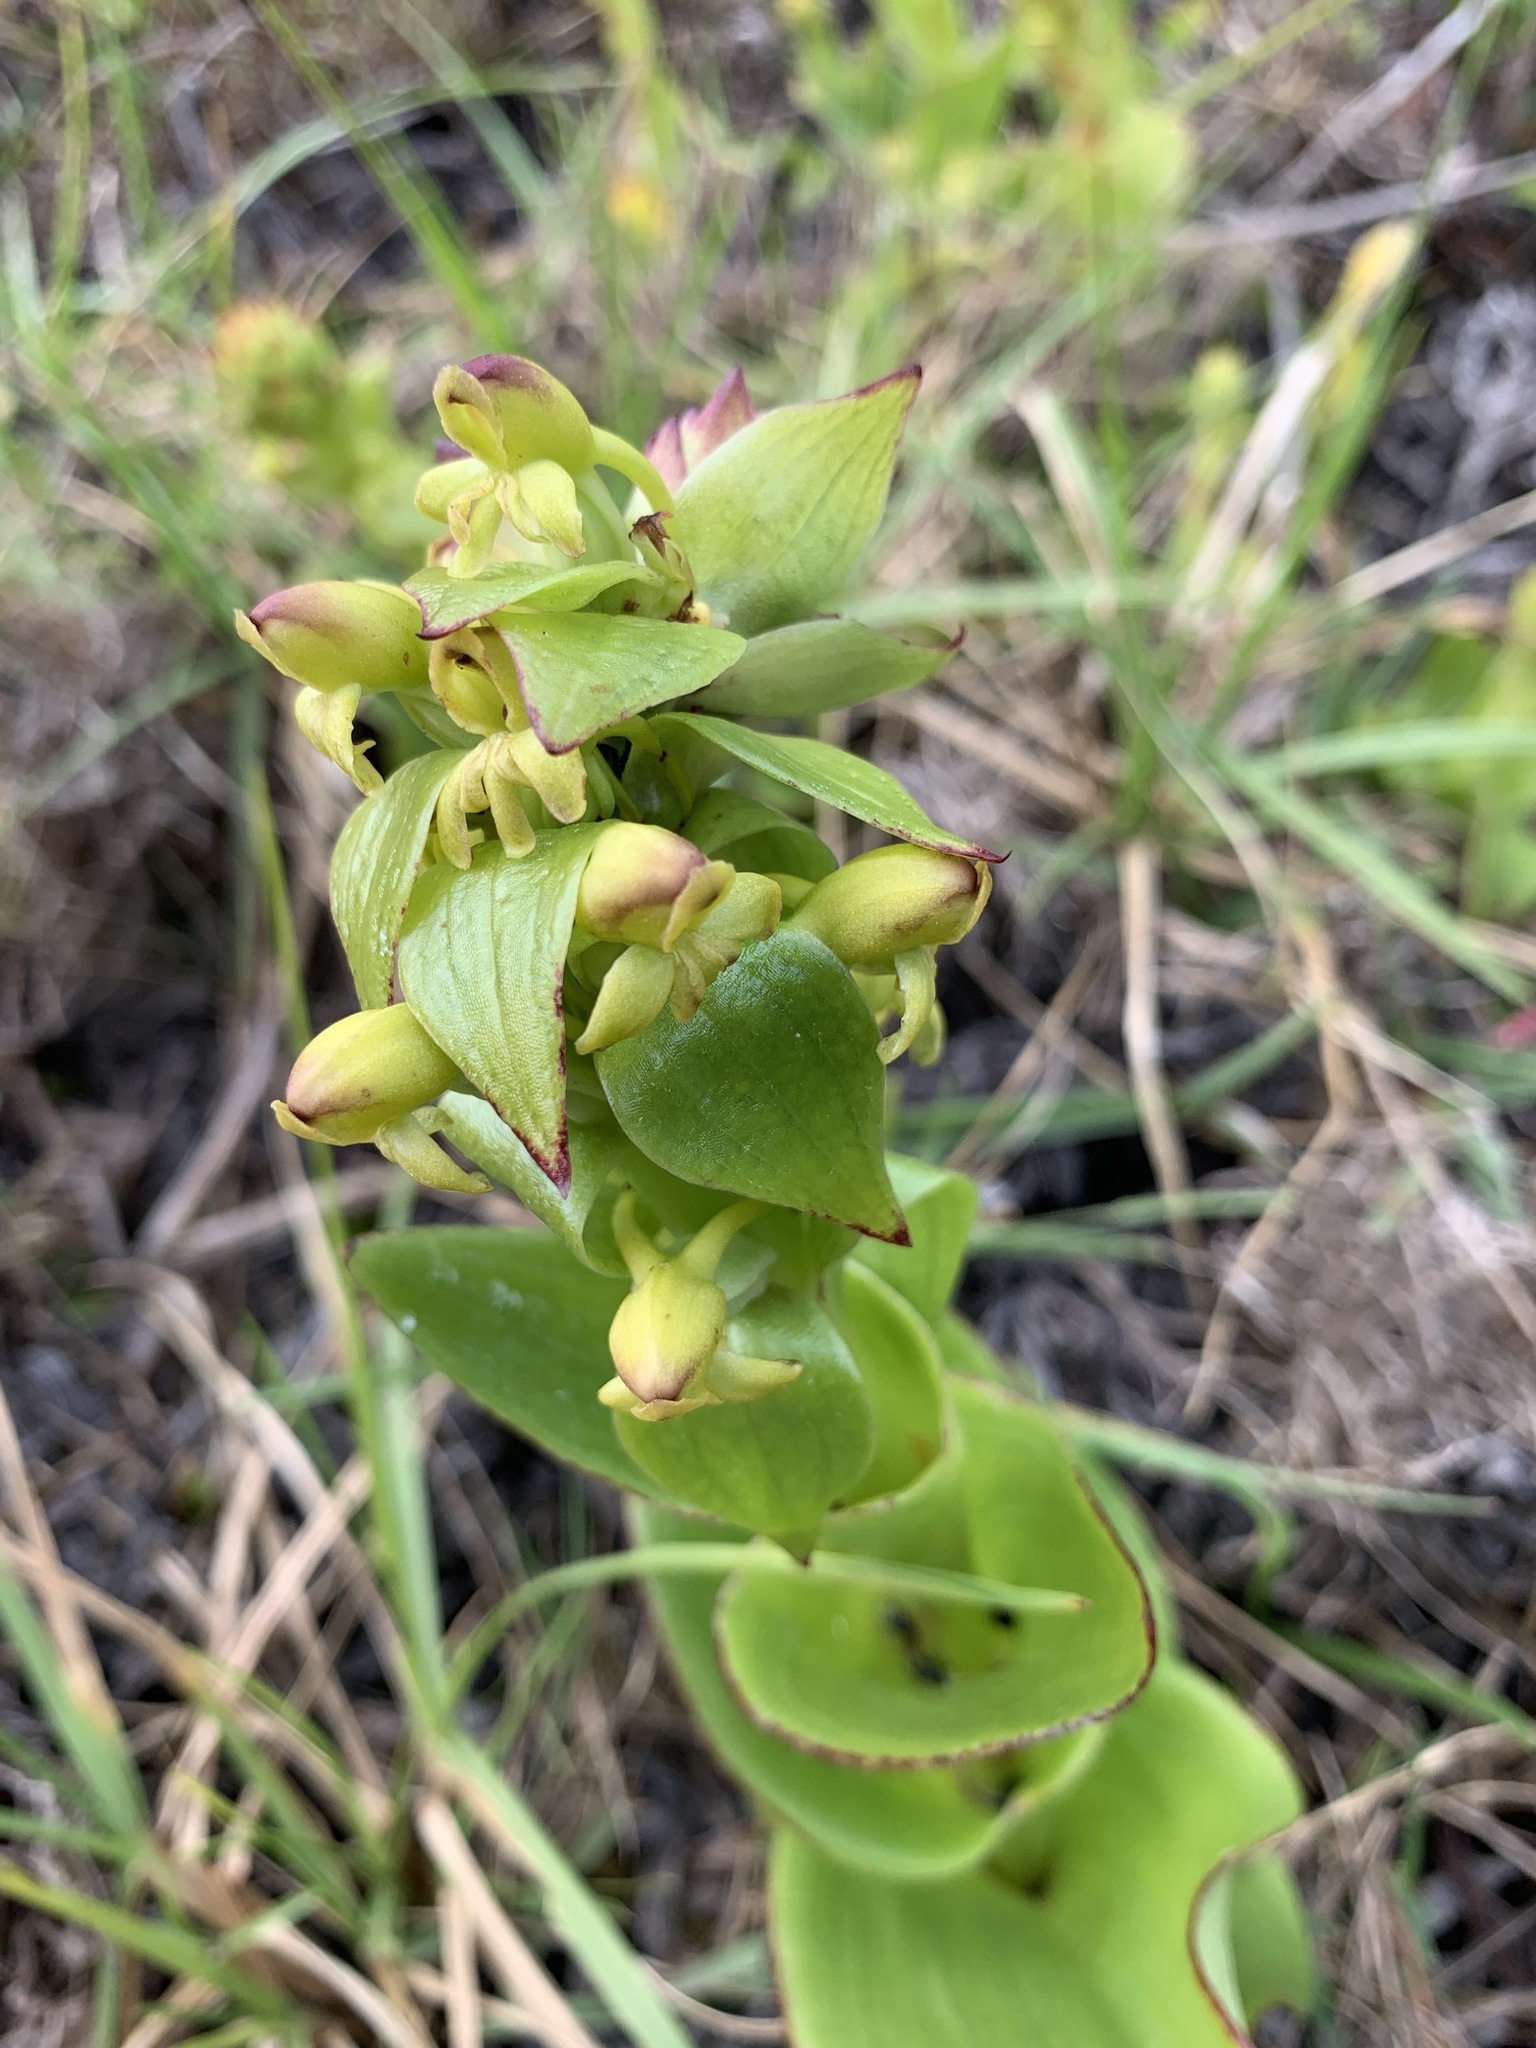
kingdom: Plantae
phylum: Tracheophyta
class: Liliopsida
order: Asparagales
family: Orchidaceae
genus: Satyrium
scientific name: Satyrium odorum
